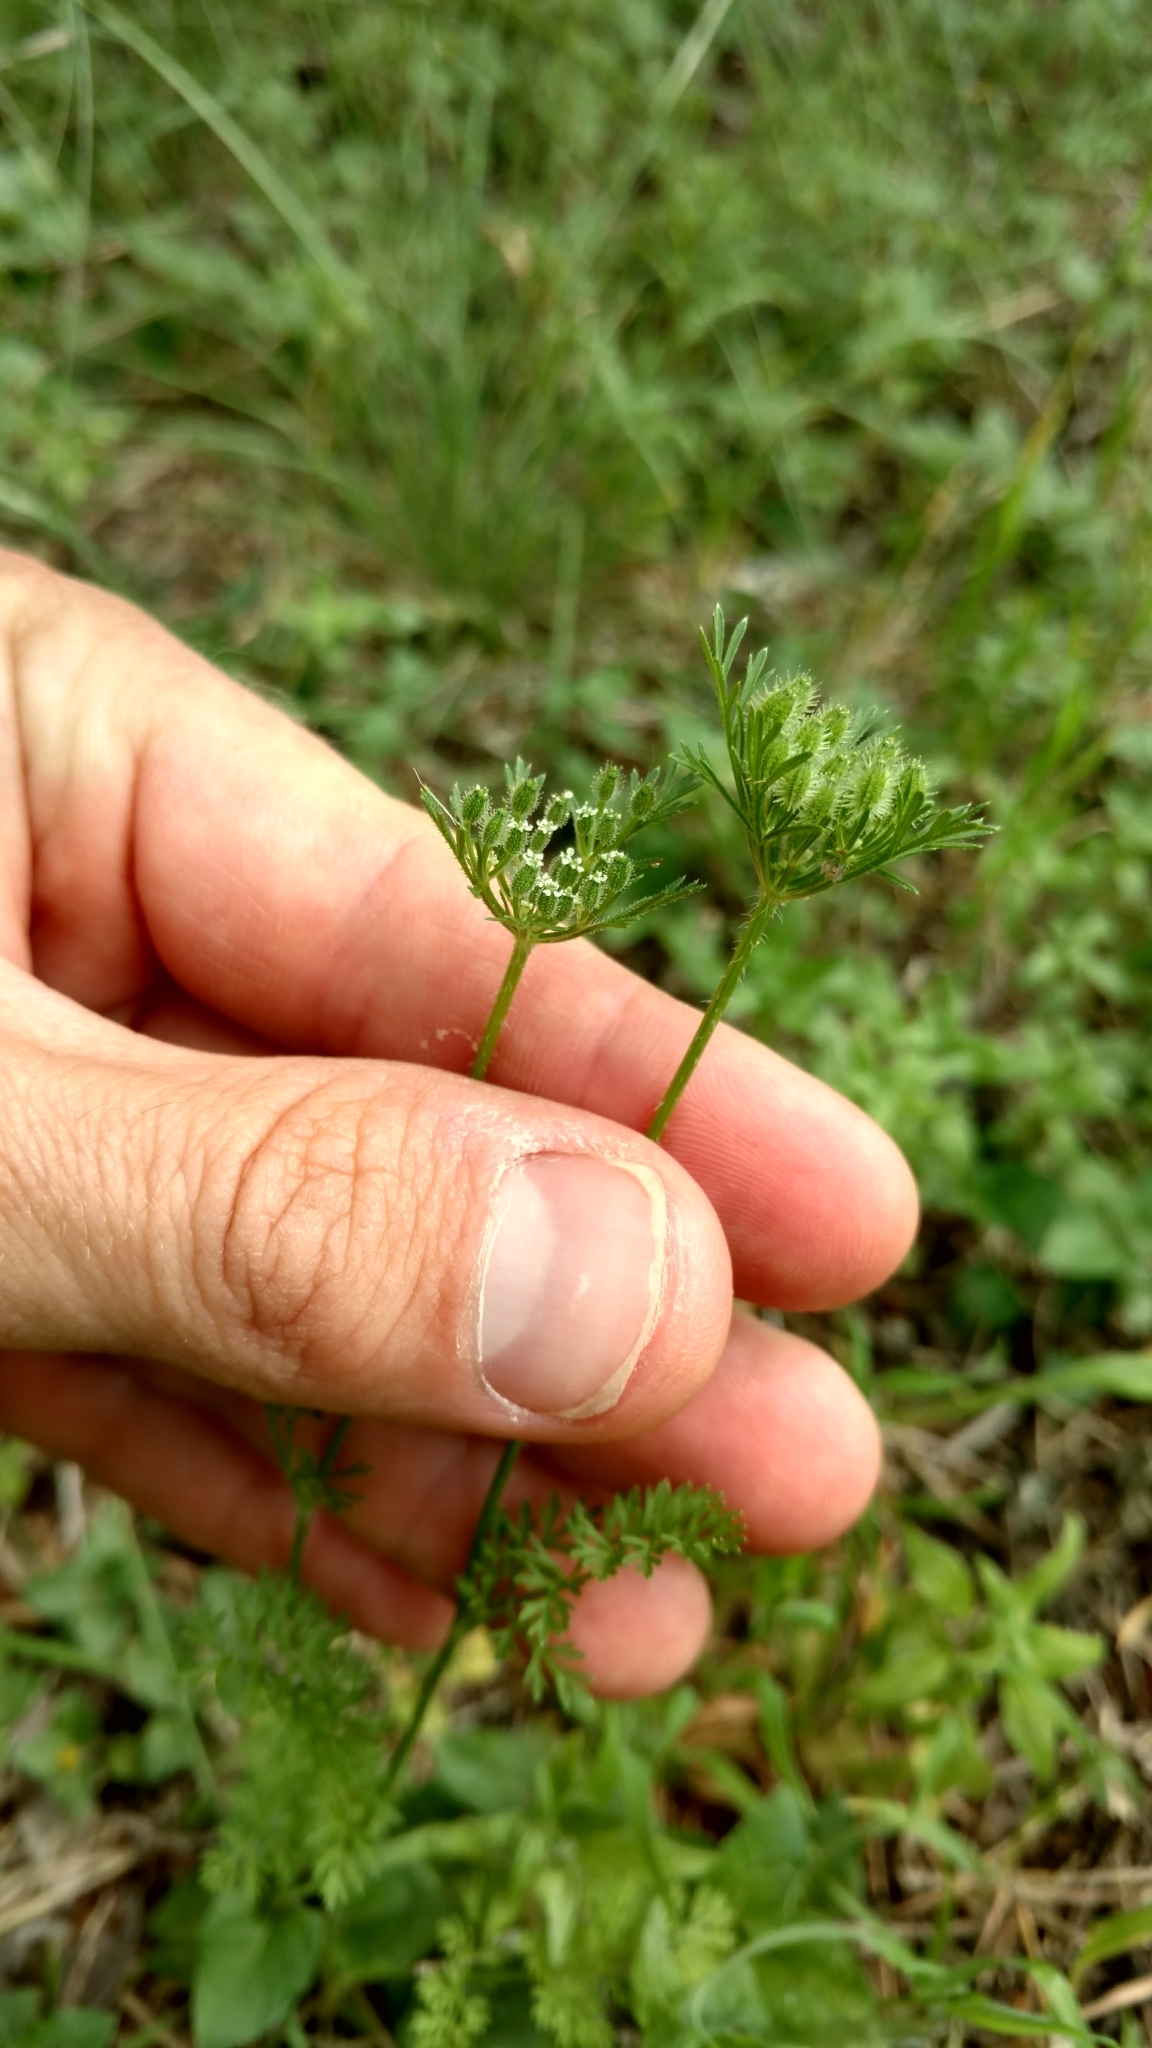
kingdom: Plantae
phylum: Tracheophyta
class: Magnoliopsida
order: Apiales
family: Apiaceae
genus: Daucus
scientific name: Daucus pusillus
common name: Southwest wild carrot
